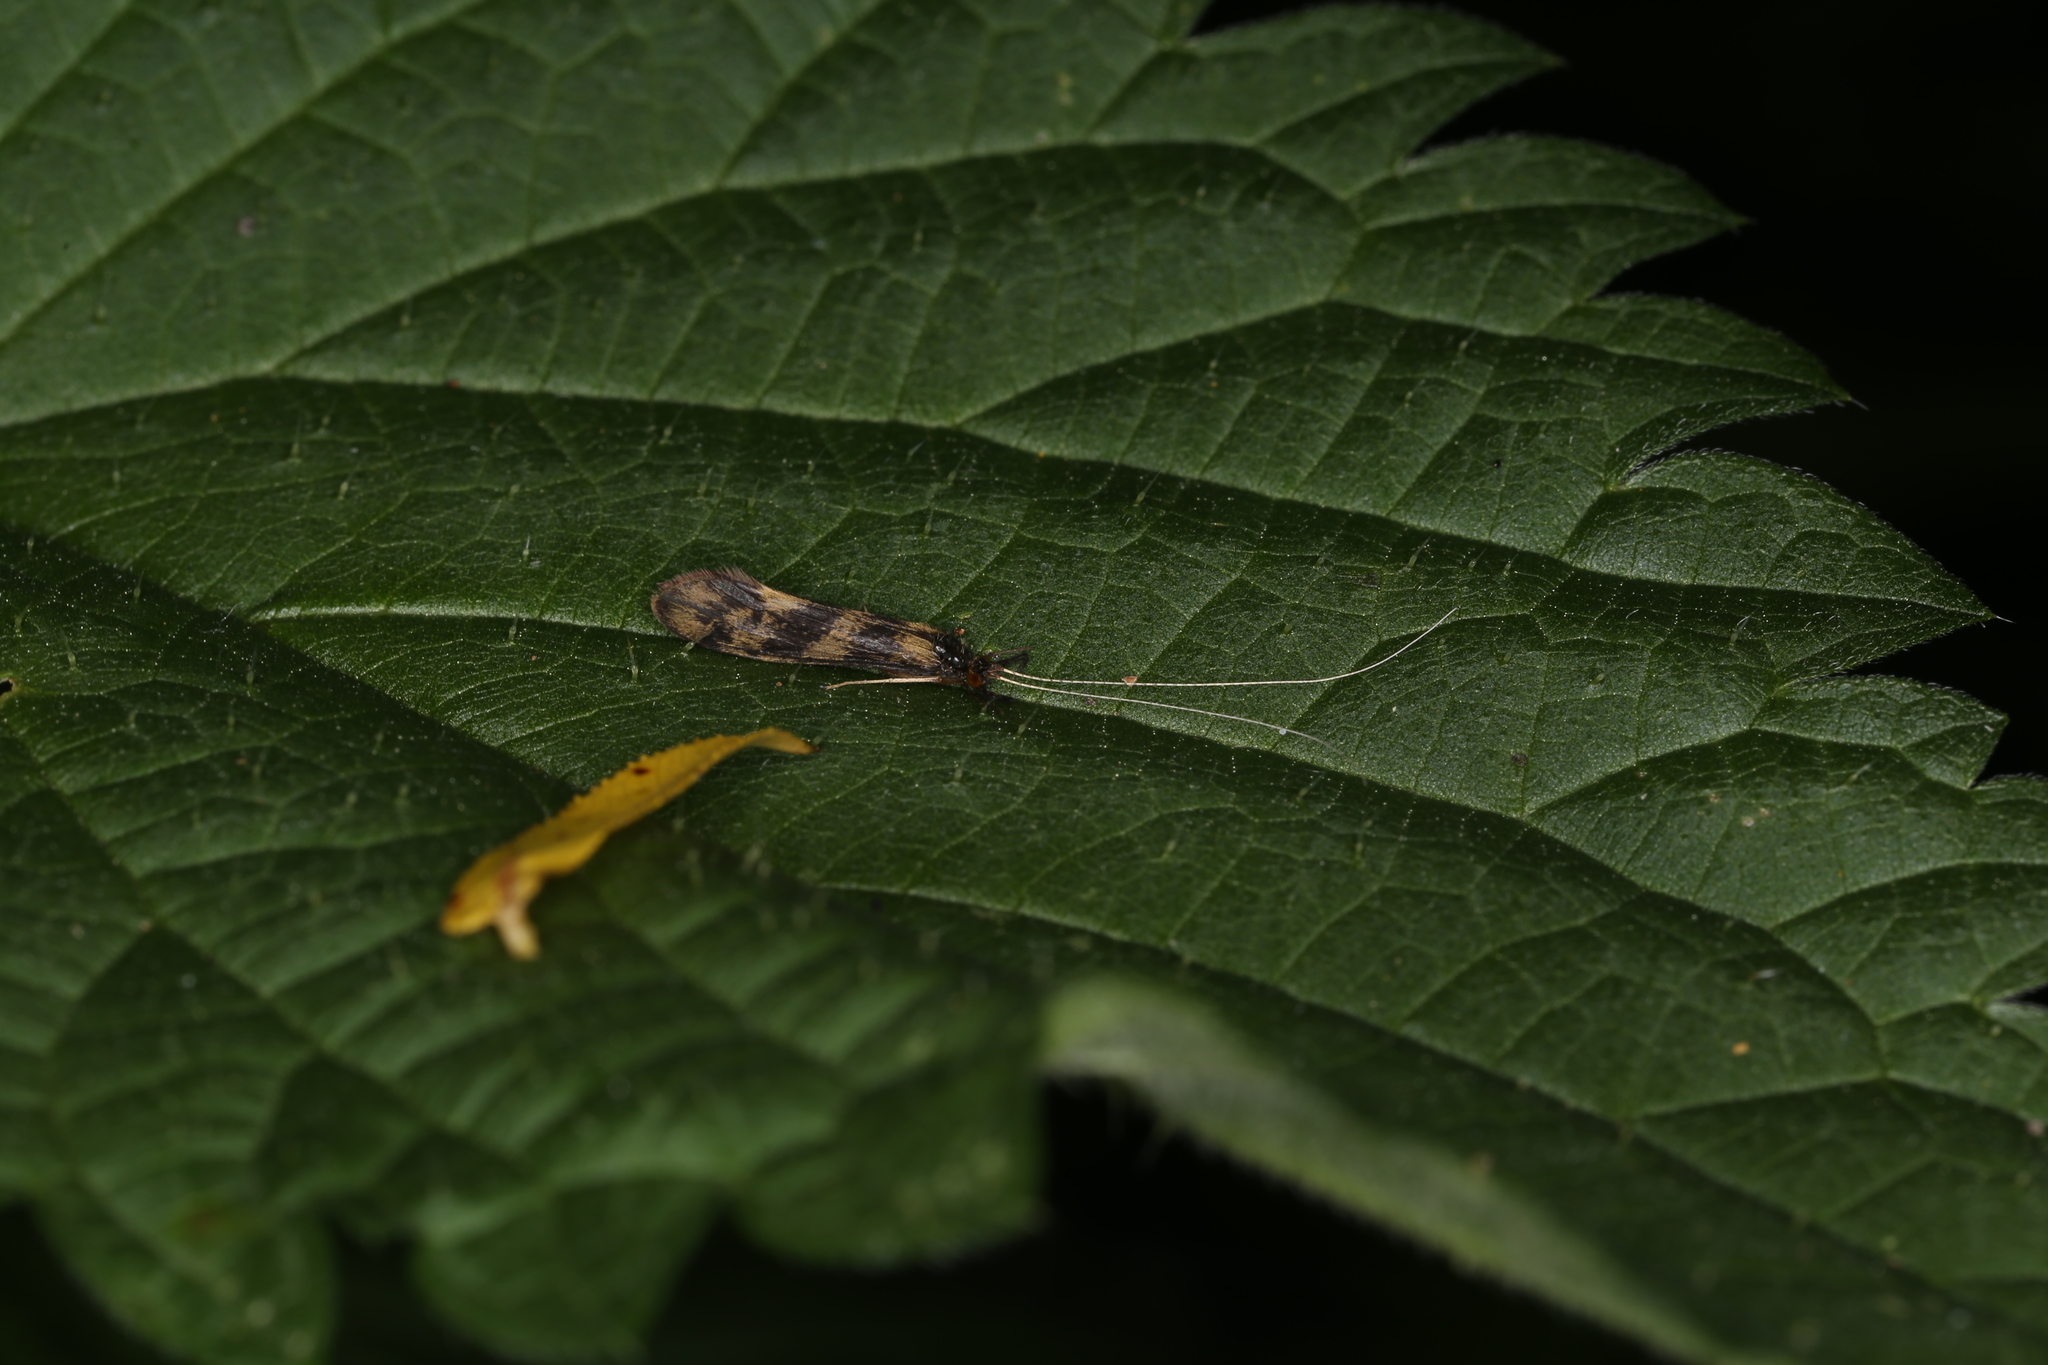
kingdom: Animalia
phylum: Arthropoda
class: Insecta
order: Trichoptera
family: Leptoceridae
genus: Mystacides
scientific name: Mystacides longicornis
